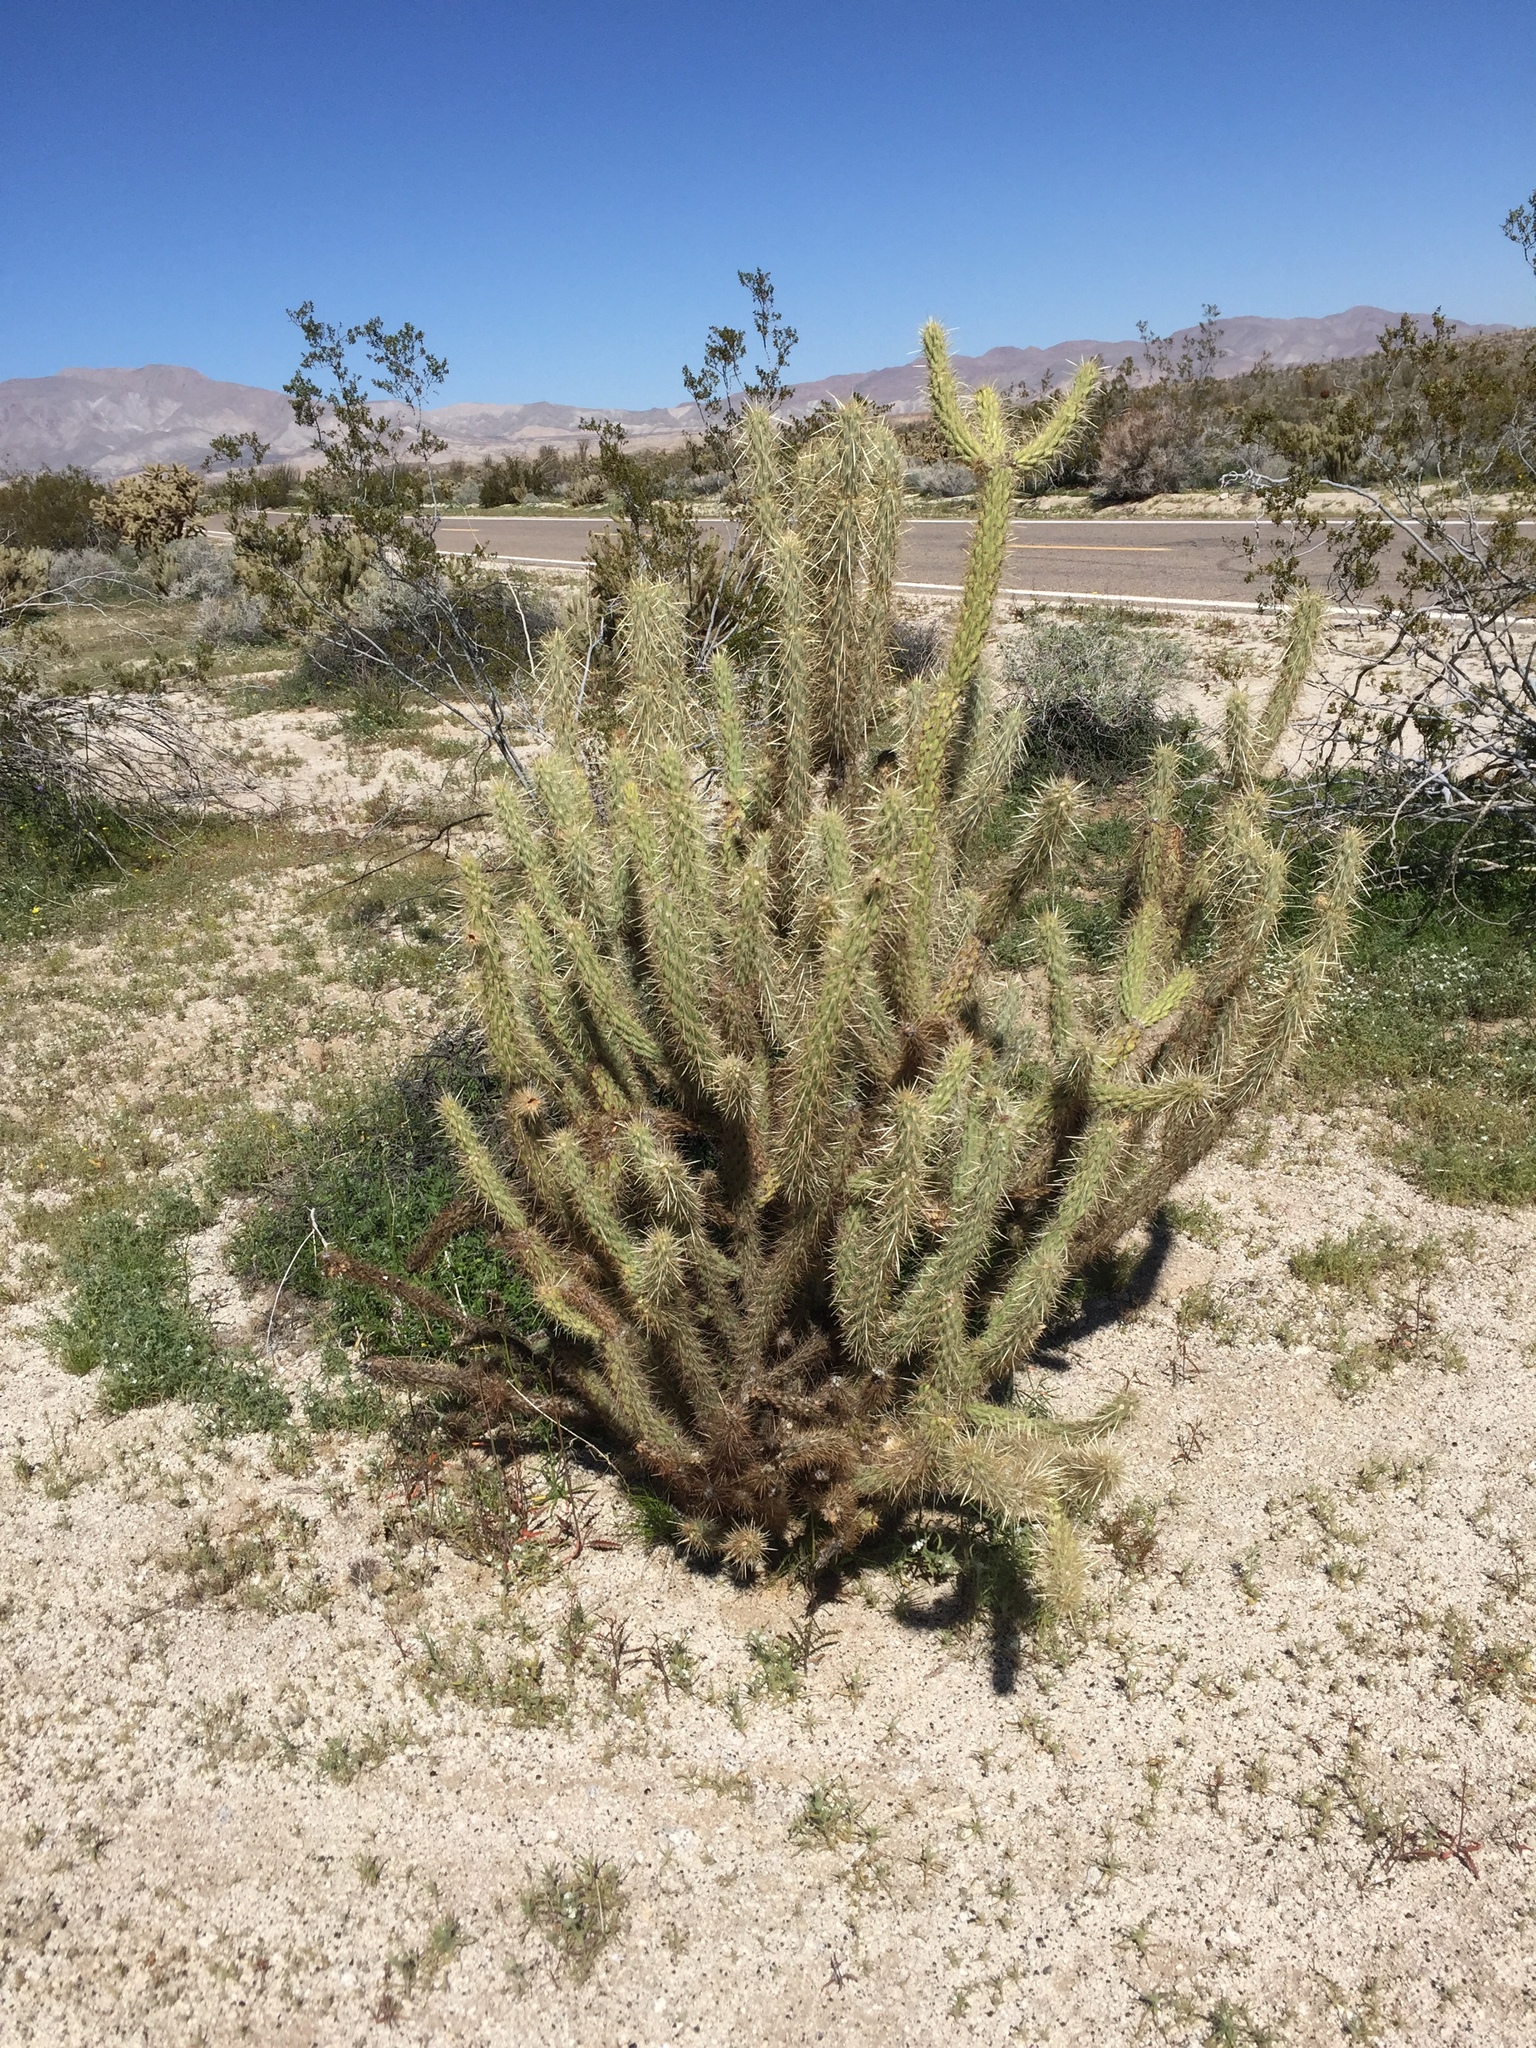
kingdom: Plantae
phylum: Tracheophyta
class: Magnoliopsida
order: Caryophyllales
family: Cactaceae
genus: Cylindropuntia
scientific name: Cylindropuntia ganderi
